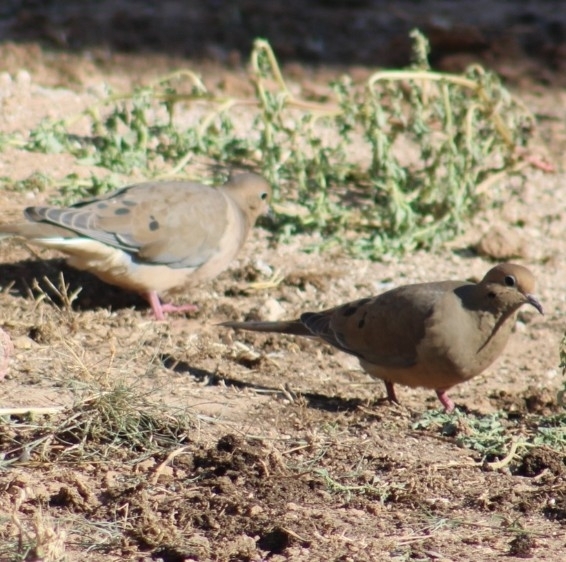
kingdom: Animalia
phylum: Chordata
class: Aves
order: Columbiformes
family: Columbidae
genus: Zenaida
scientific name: Zenaida macroura
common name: Mourning dove
